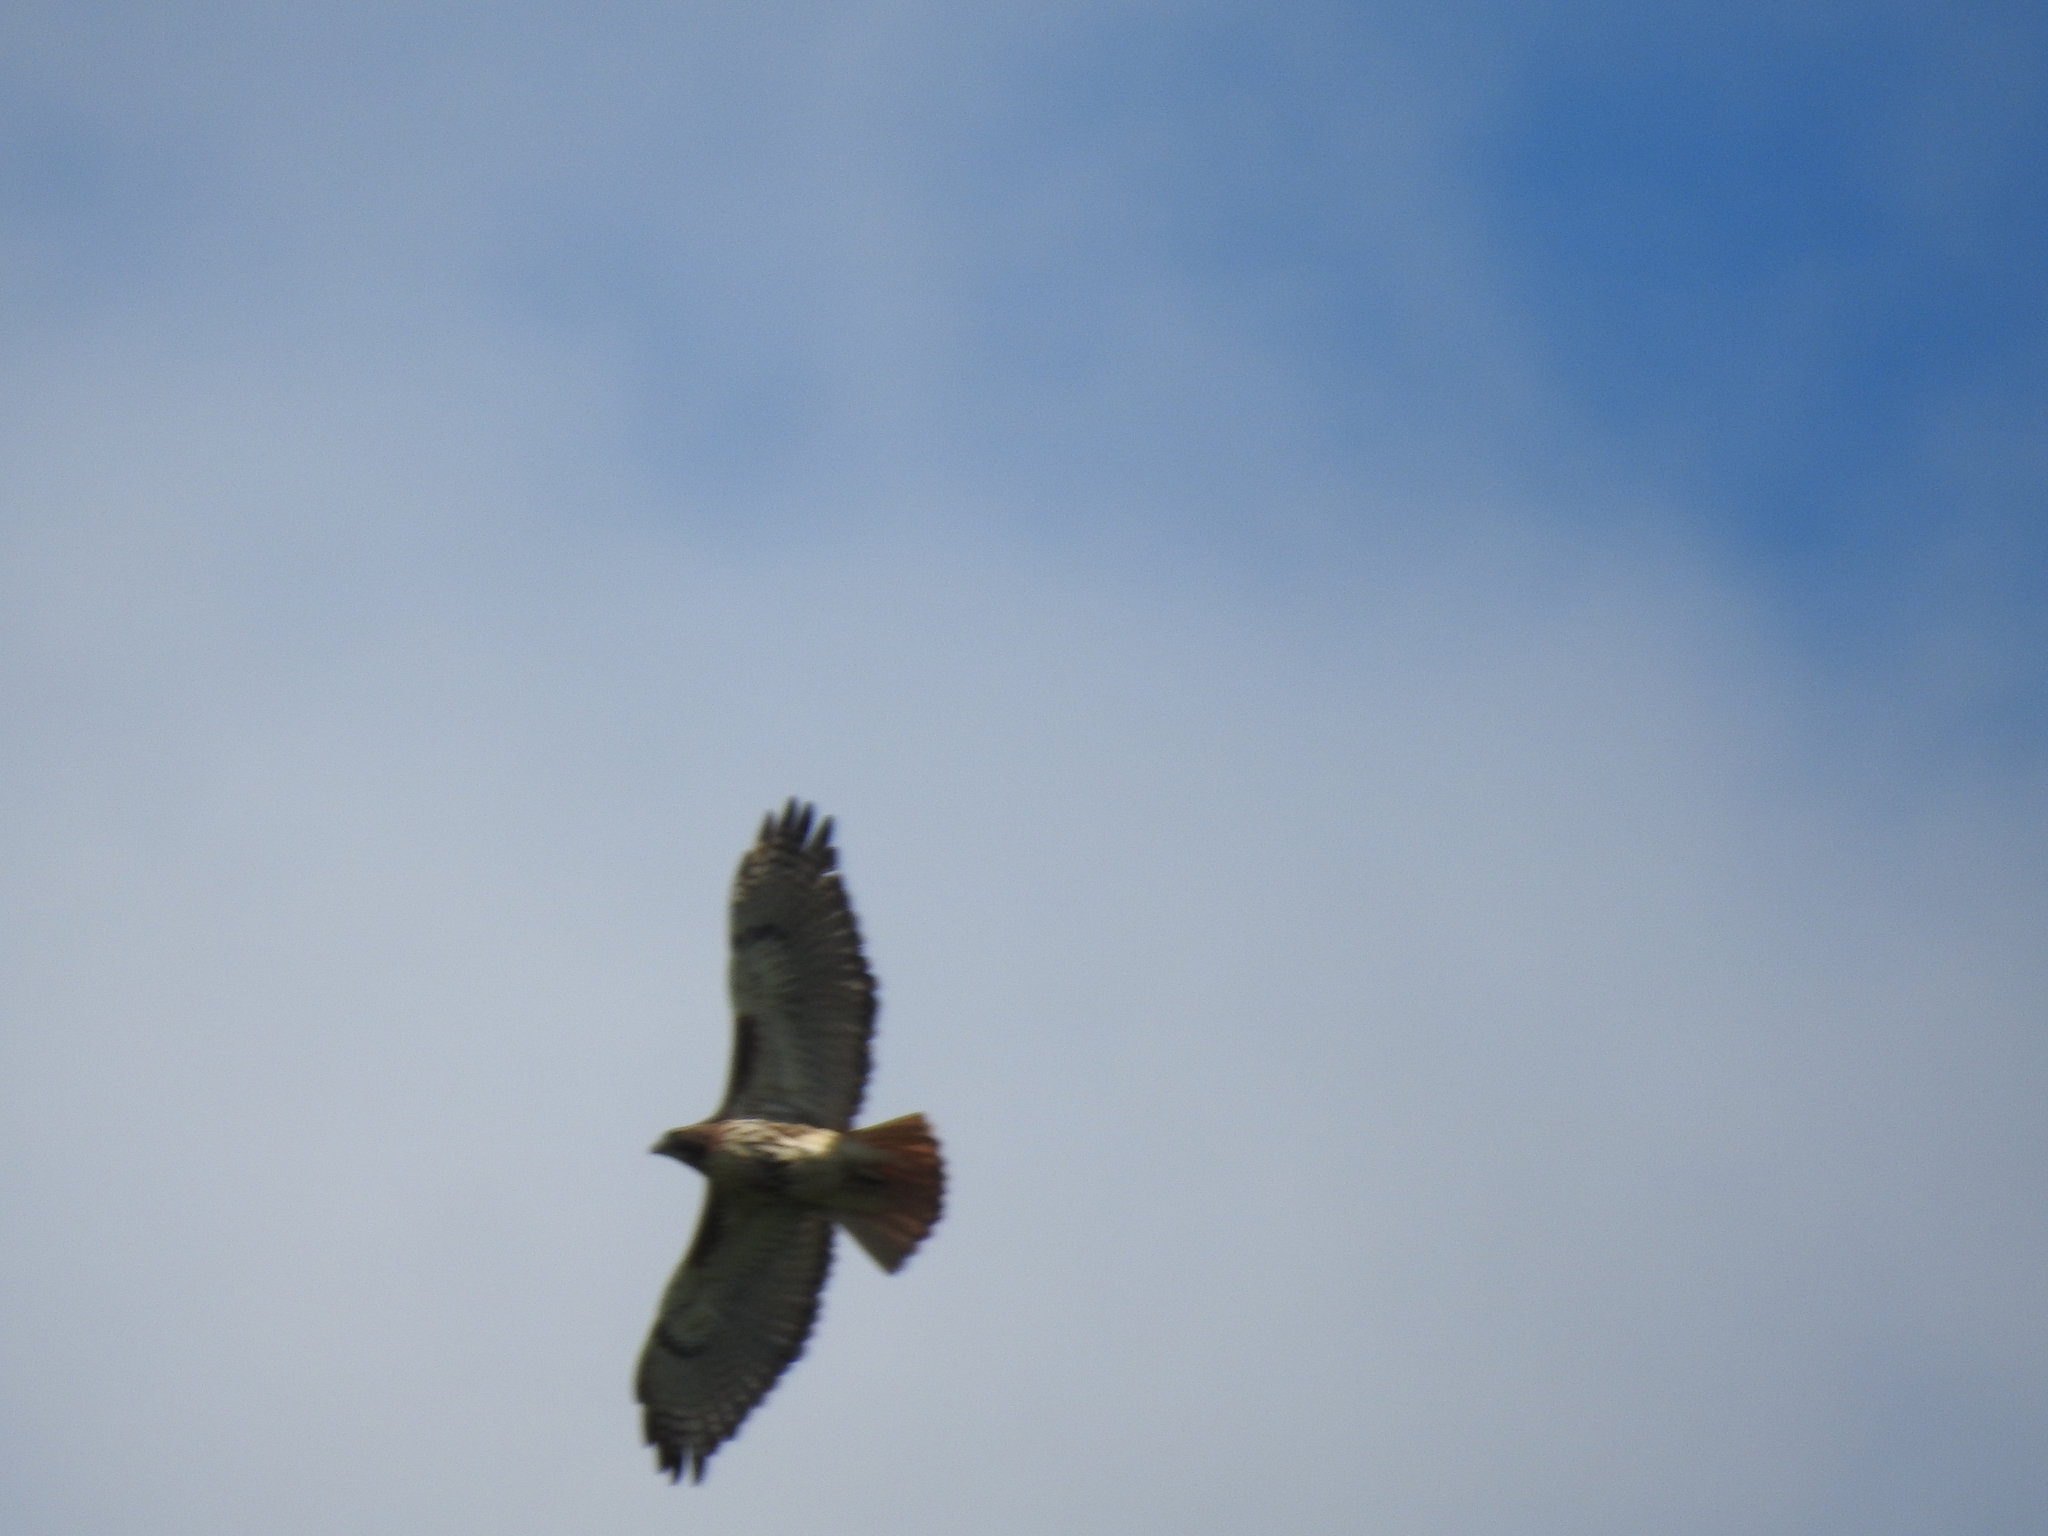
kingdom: Animalia
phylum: Chordata
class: Aves
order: Accipitriformes
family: Accipitridae
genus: Buteo
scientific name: Buteo jamaicensis
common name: Red-tailed hawk
